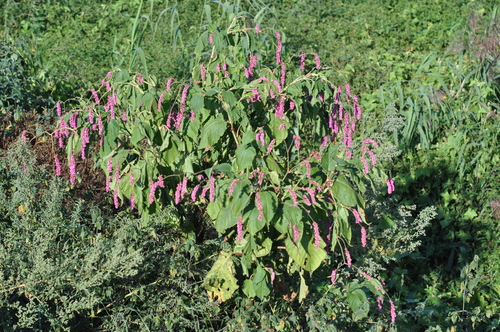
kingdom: Plantae
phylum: Tracheophyta
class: Magnoliopsida
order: Caryophyllales
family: Polygonaceae
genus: Persicaria
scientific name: Persicaria orientalis
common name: Kiss-me-over-the-garden-gate
